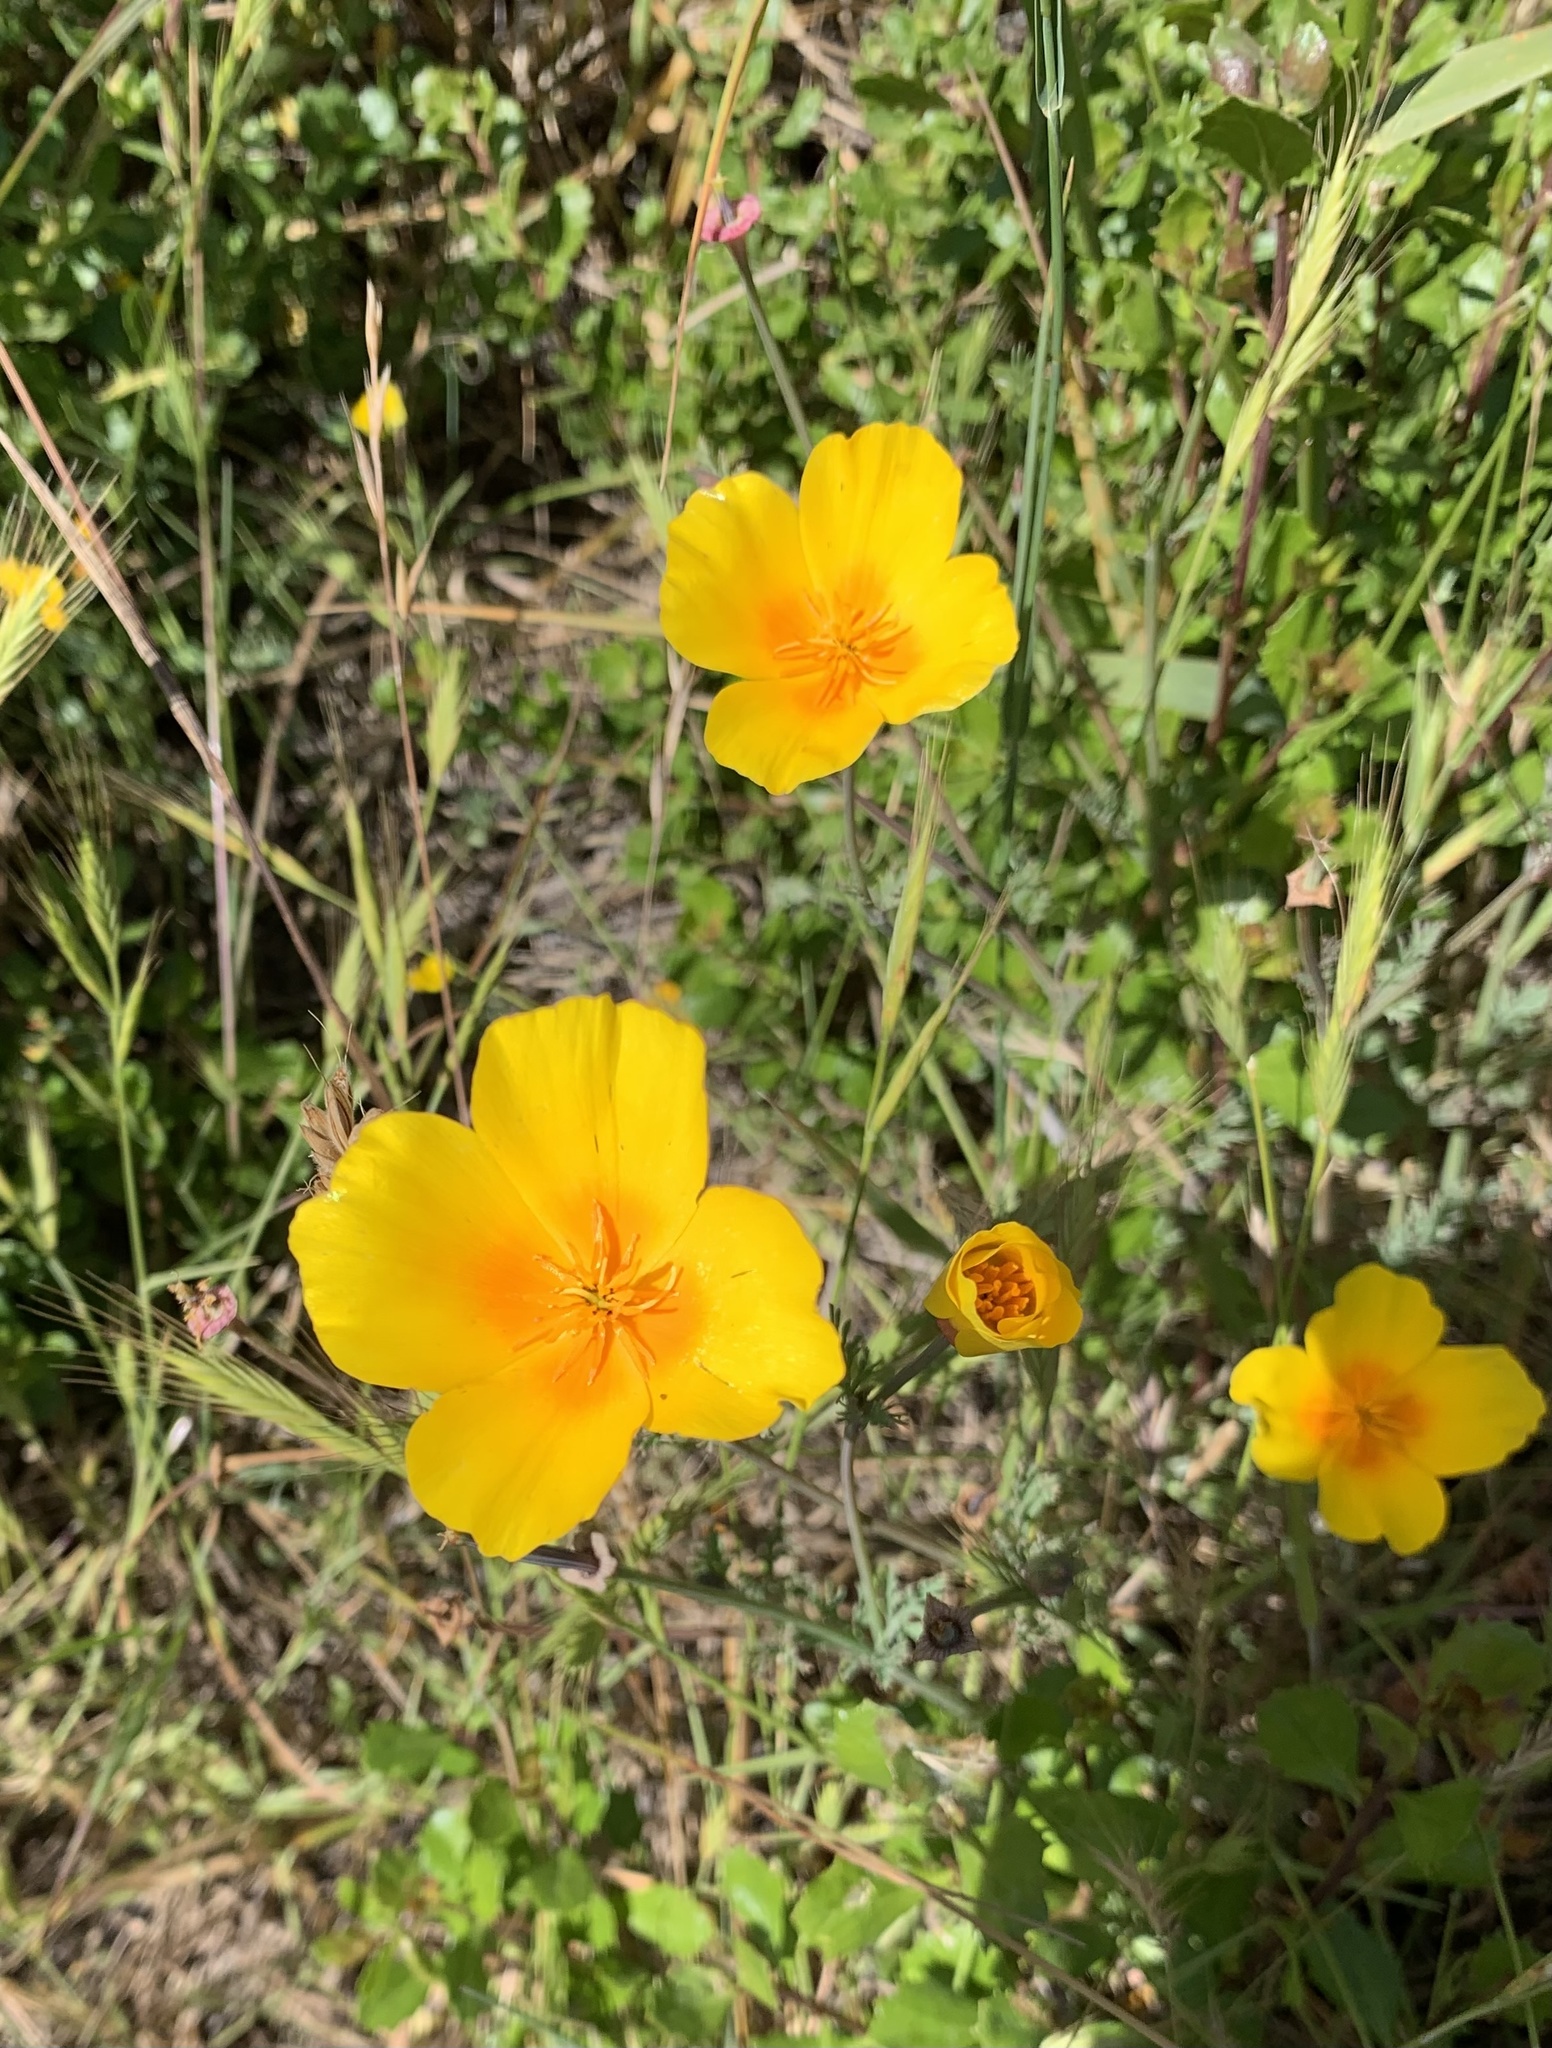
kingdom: Plantae
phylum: Tracheophyta
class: Magnoliopsida
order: Ranunculales
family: Papaveraceae
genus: Eschscholzia
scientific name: Eschscholzia californica
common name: California poppy
